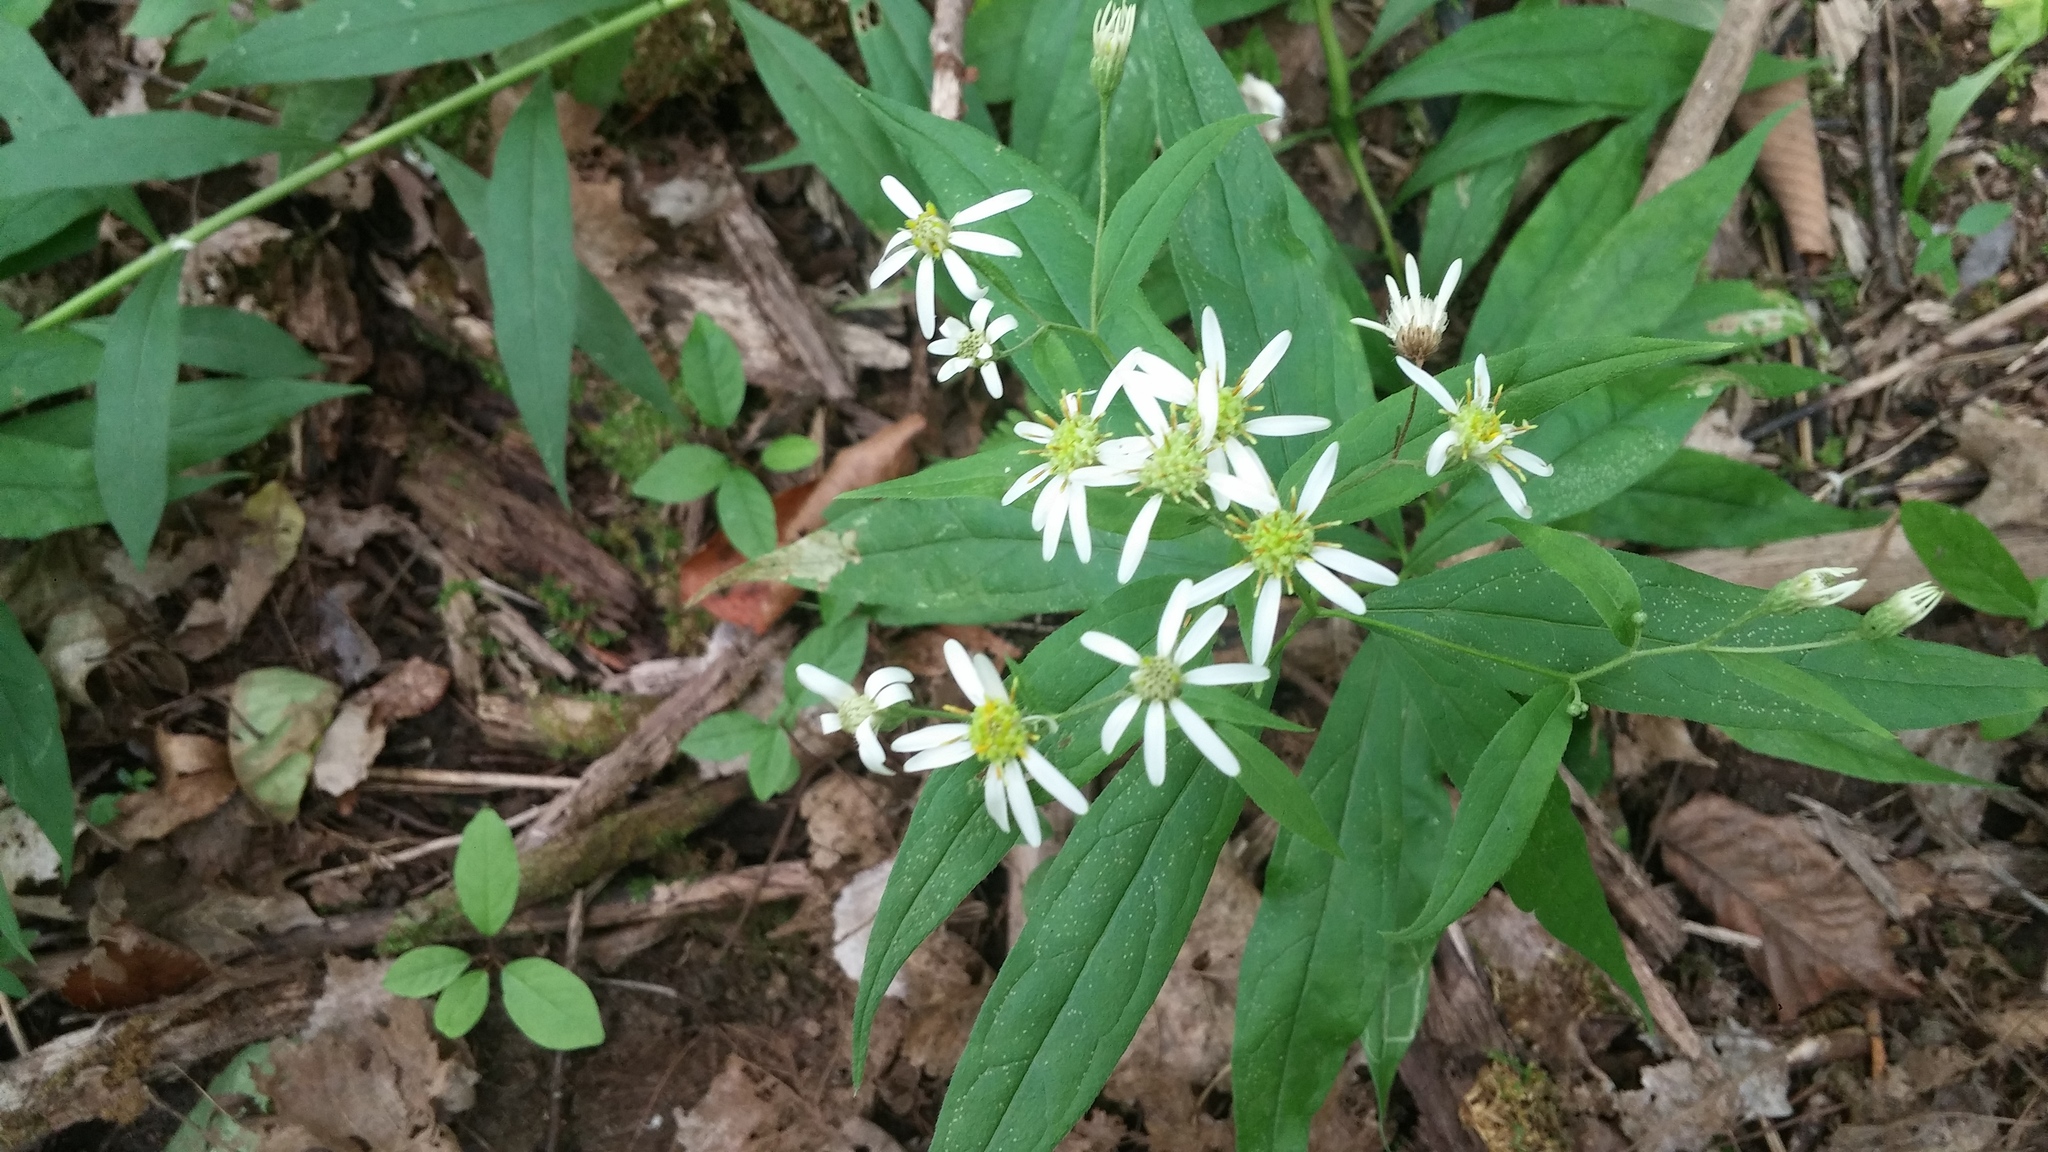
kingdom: Plantae
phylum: Tracheophyta
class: Magnoliopsida
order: Asterales
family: Asteraceae
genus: Doellingeria
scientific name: Doellingeria umbellata
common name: Flat-top white aster
